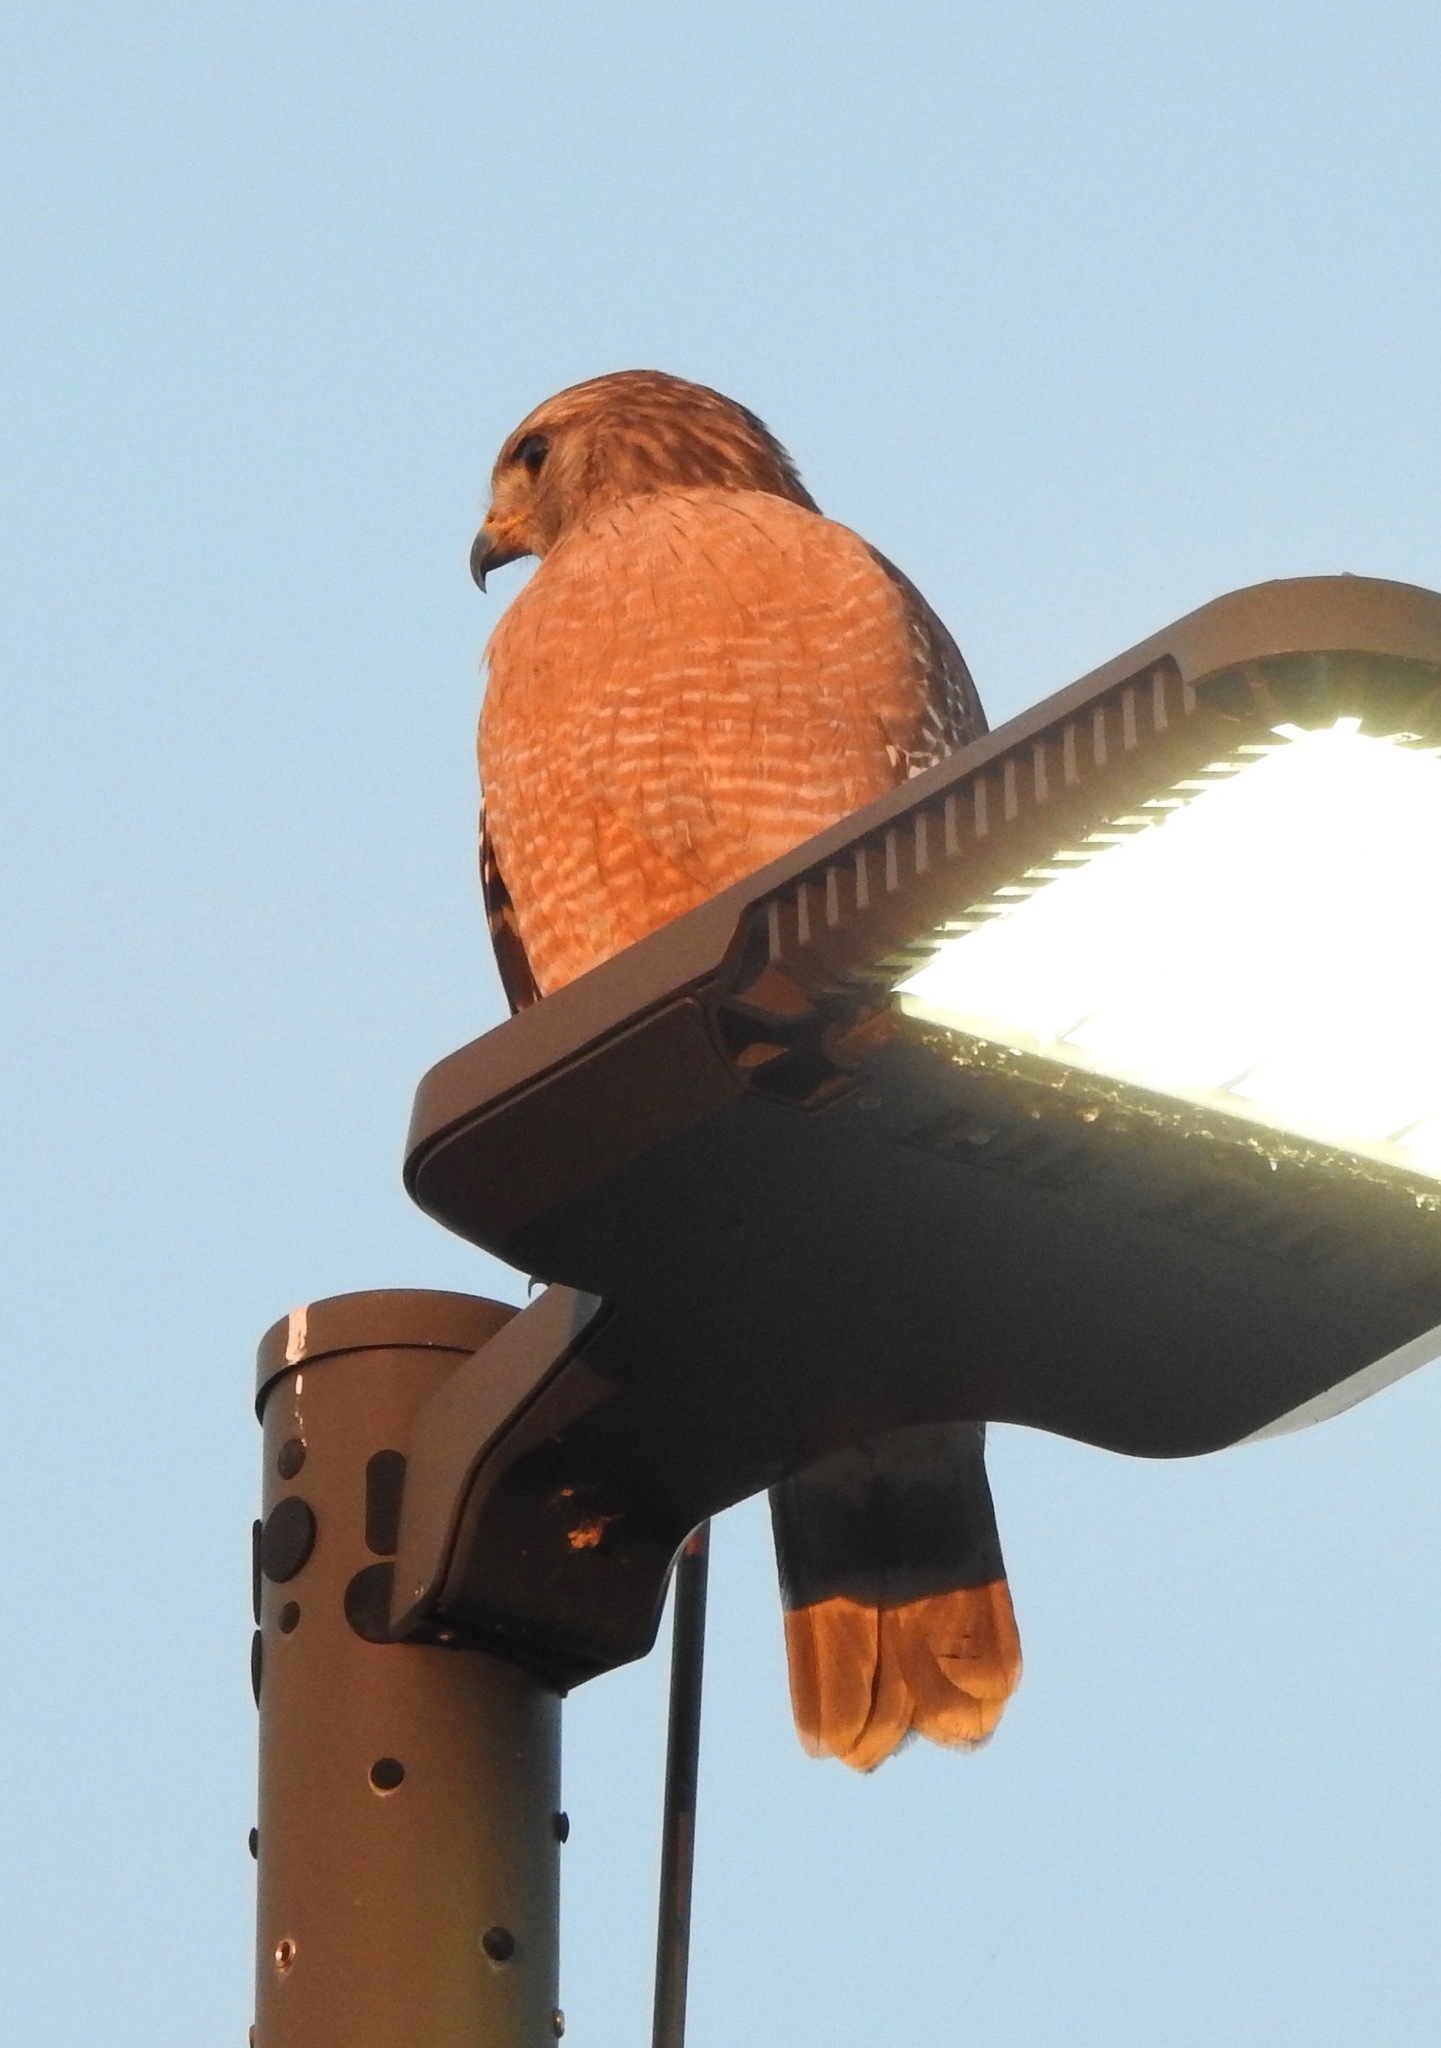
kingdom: Animalia
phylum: Chordata
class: Aves
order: Accipitriformes
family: Accipitridae
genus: Buteo
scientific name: Buteo lineatus
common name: Red-shouldered hawk
